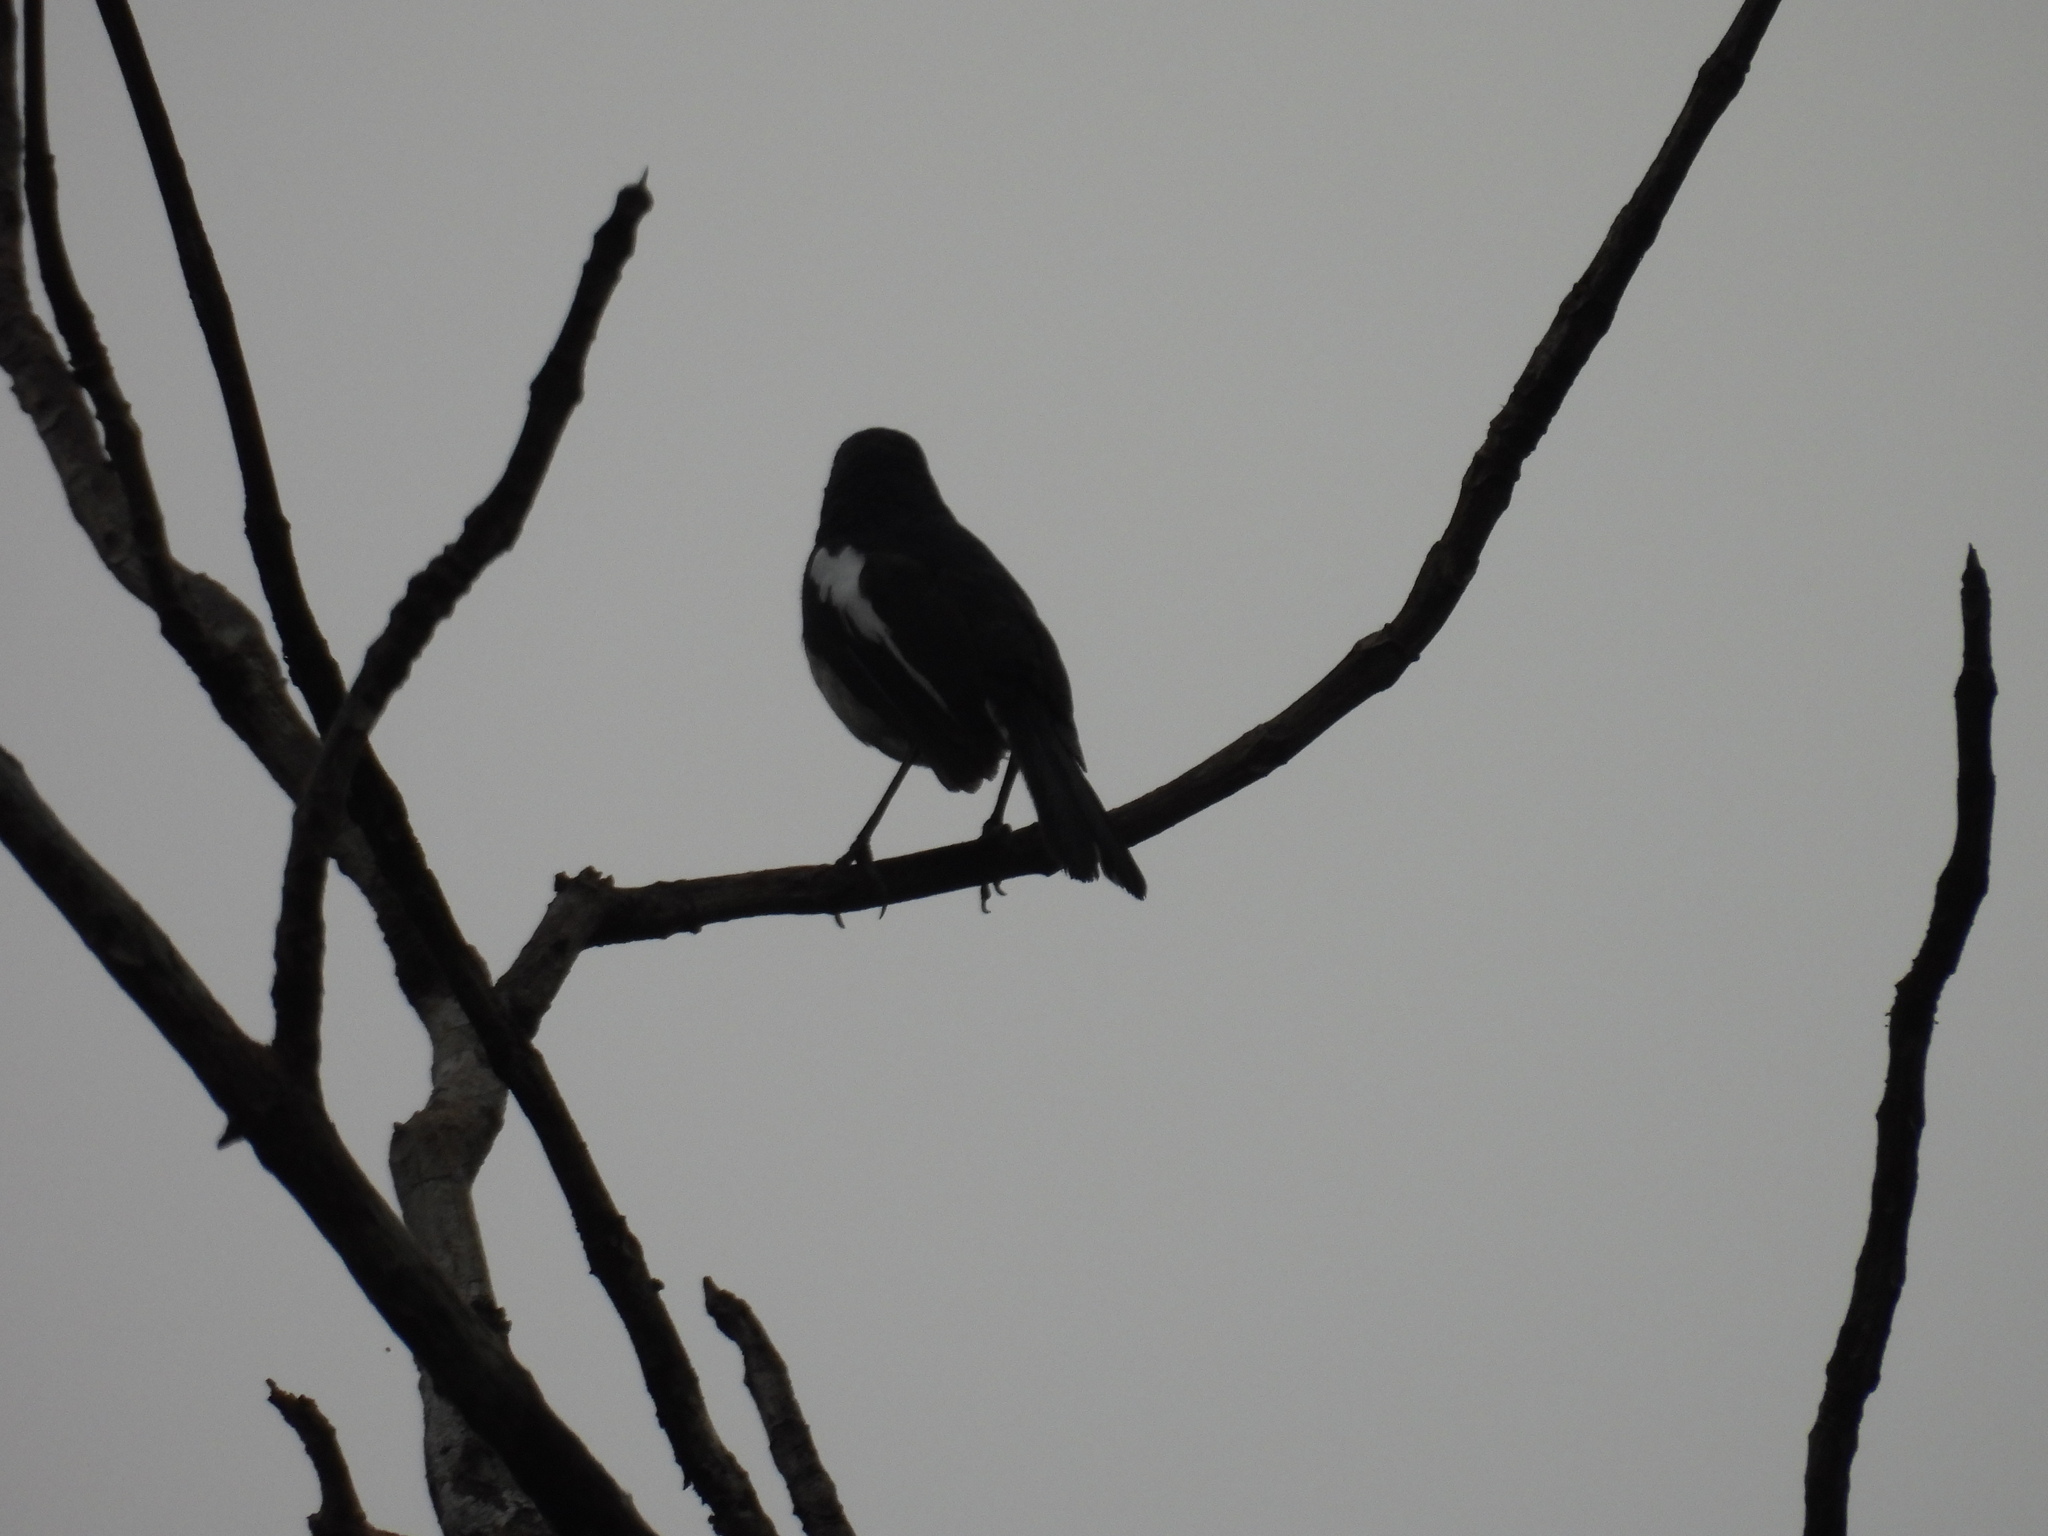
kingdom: Animalia
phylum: Chordata
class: Aves
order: Passeriformes
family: Muscicapidae
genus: Copsychus
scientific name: Copsychus saularis
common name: Oriental magpie-robin
